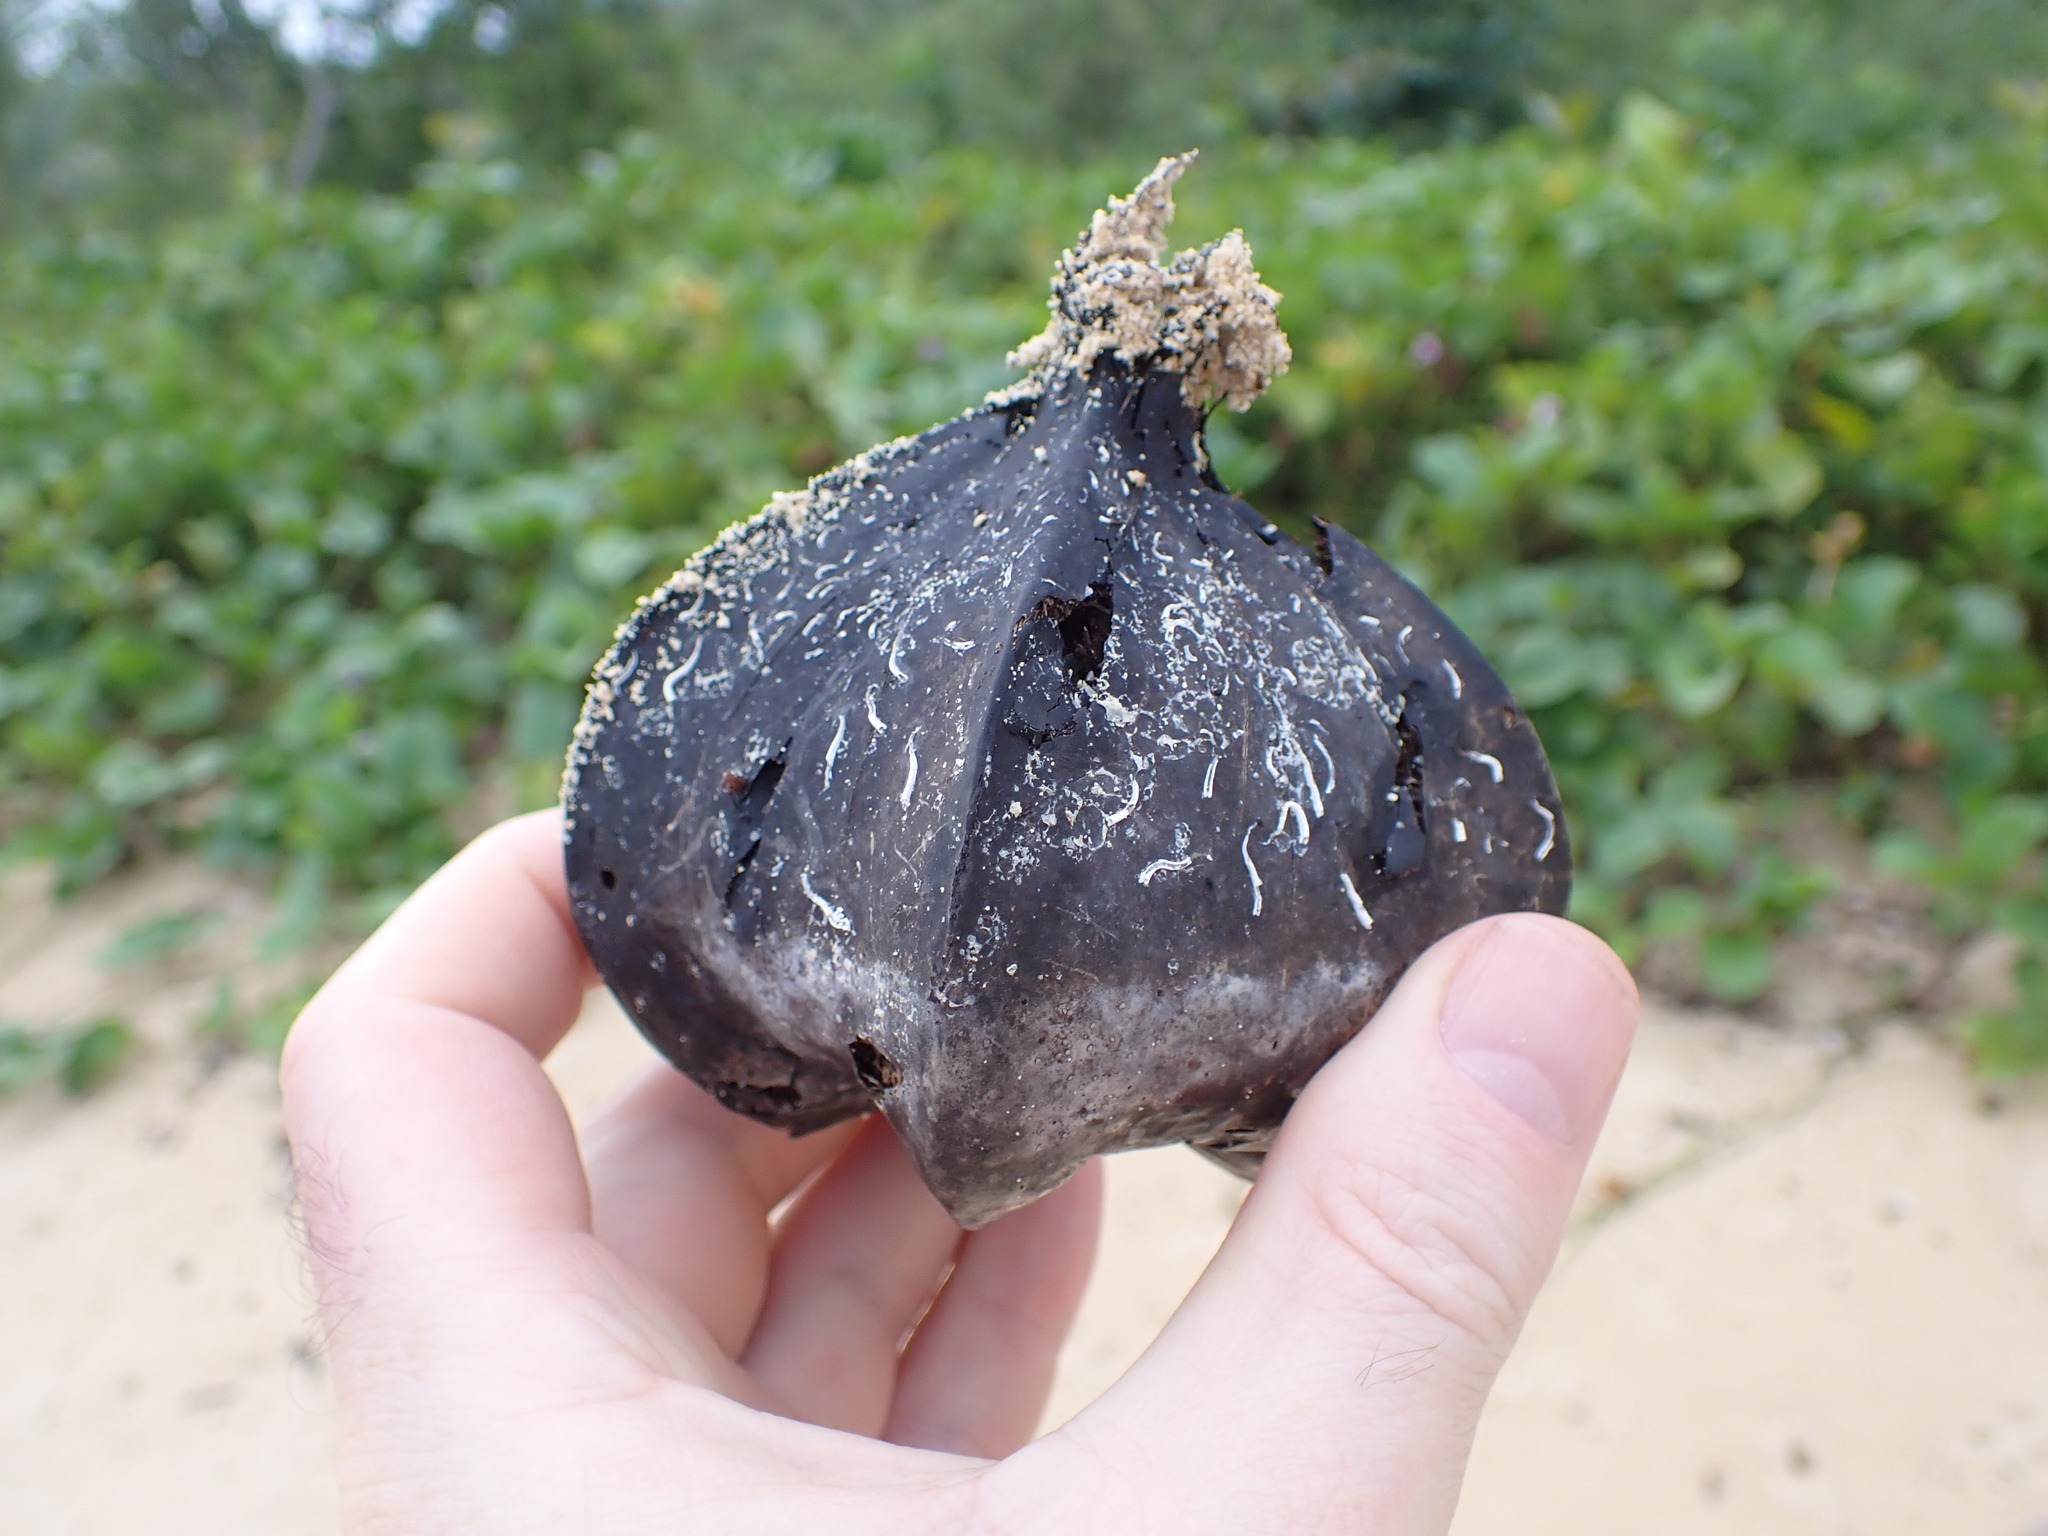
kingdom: Plantae
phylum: Tracheophyta
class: Magnoliopsida
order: Ericales
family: Lecythidaceae
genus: Barringtonia
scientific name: Barringtonia asiatica
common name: Mango-pine
